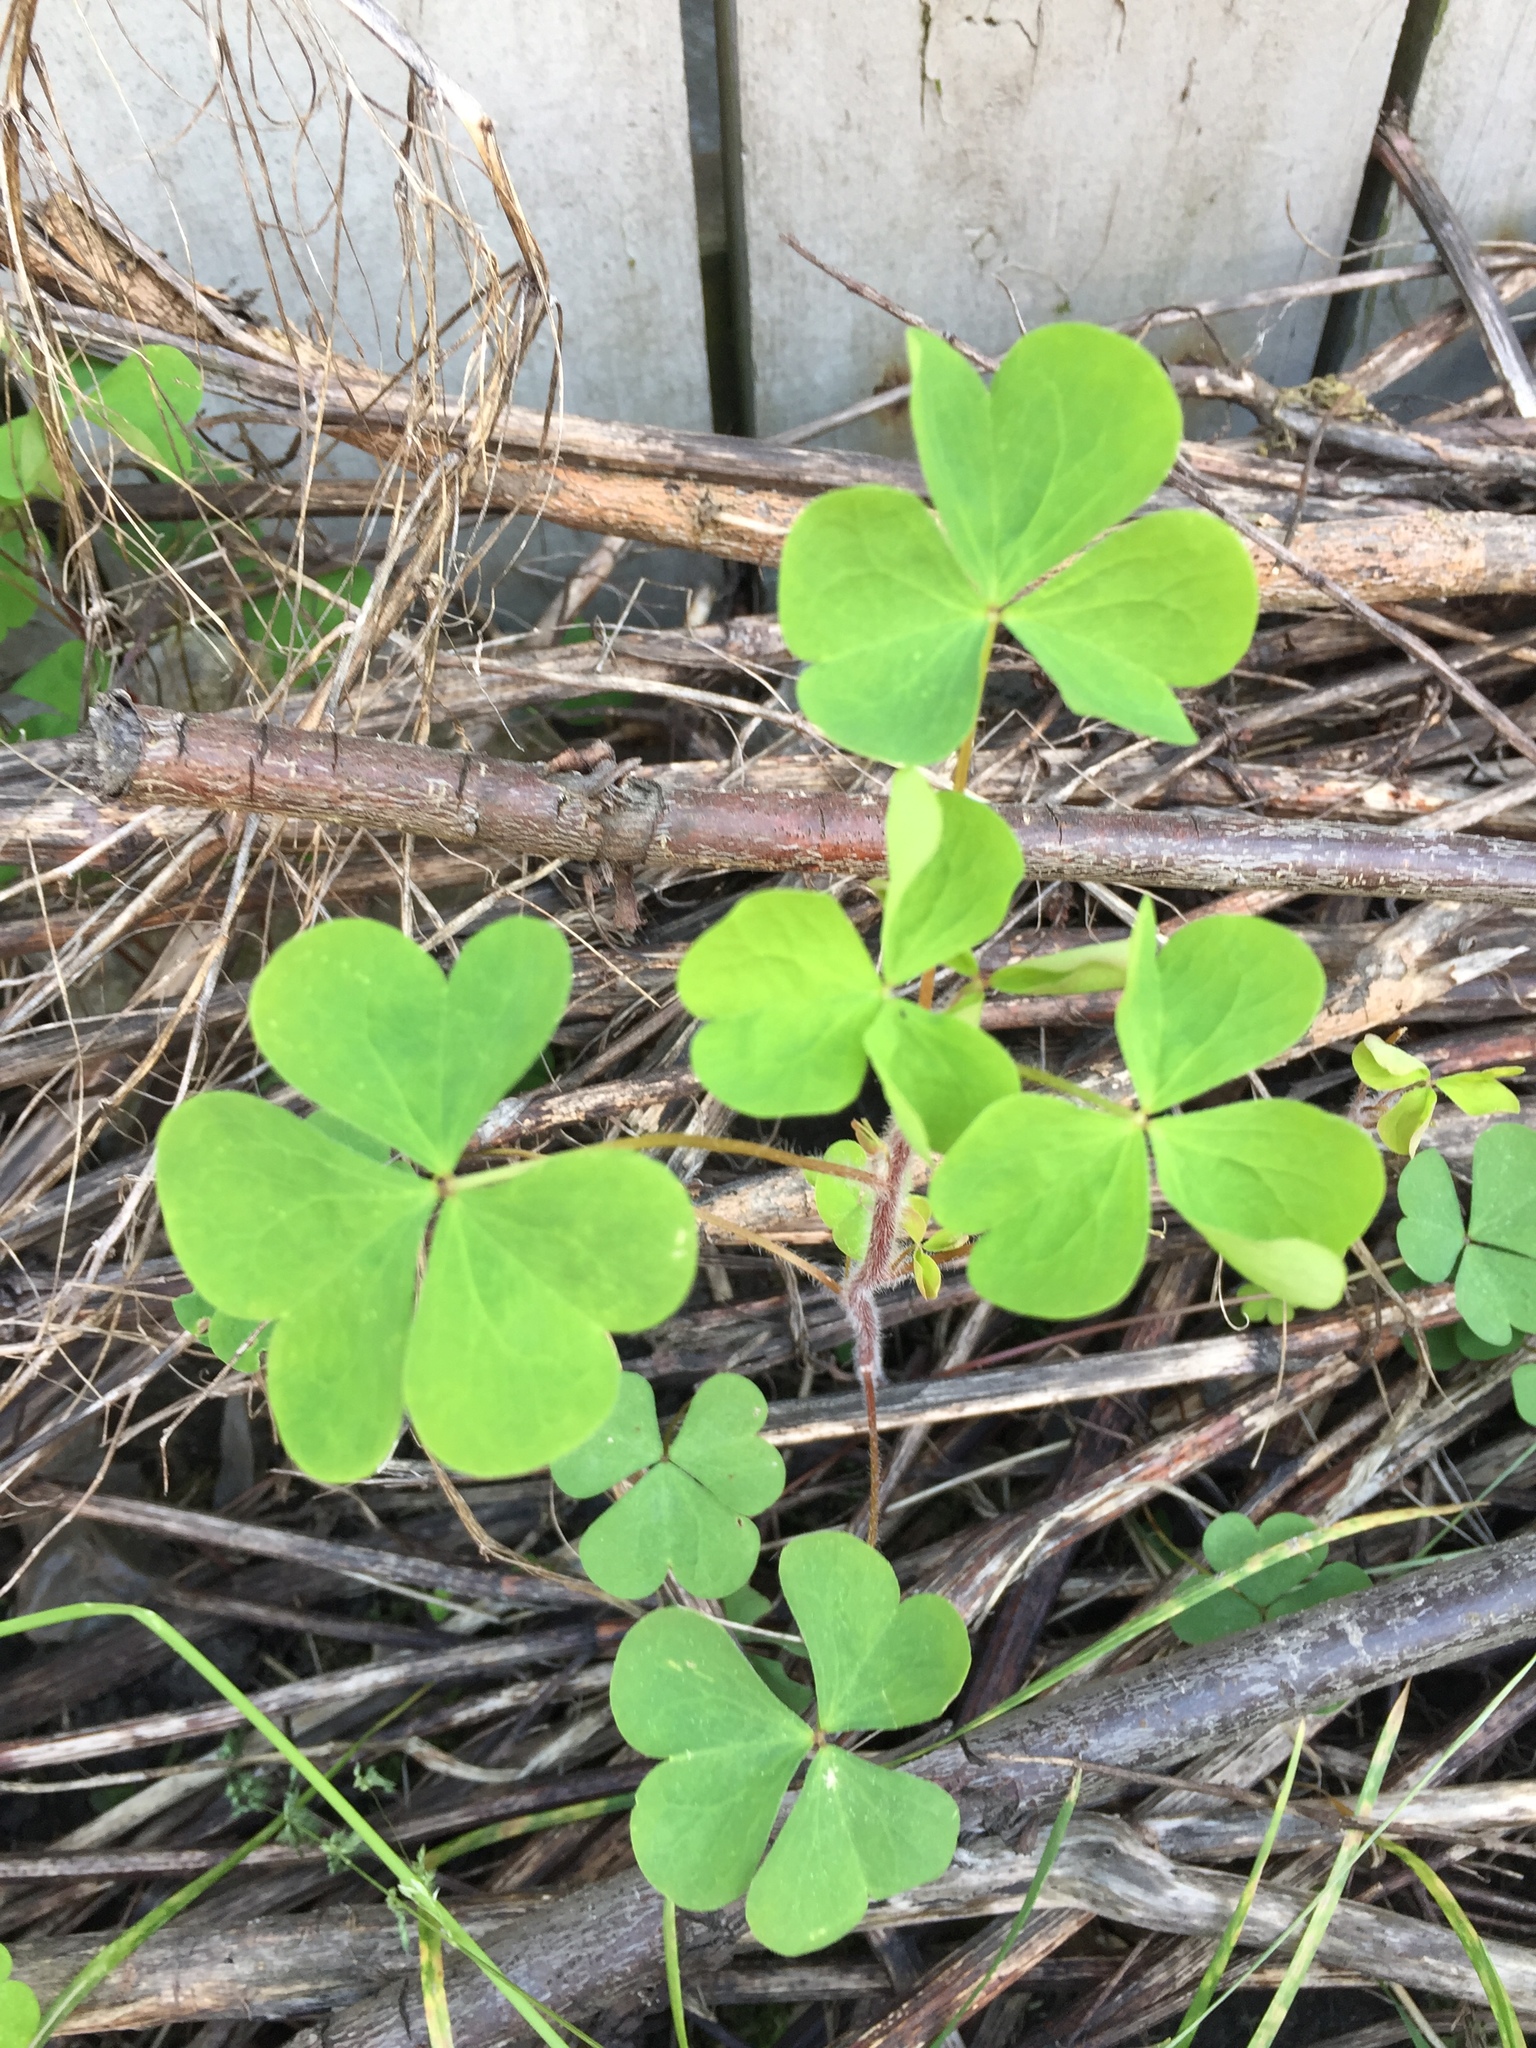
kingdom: Plantae
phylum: Tracheophyta
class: Magnoliopsida
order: Oxalidales
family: Oxalidaceae
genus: Oxalis
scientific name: Oxalis stricta
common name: Upright yellow-sorrel
